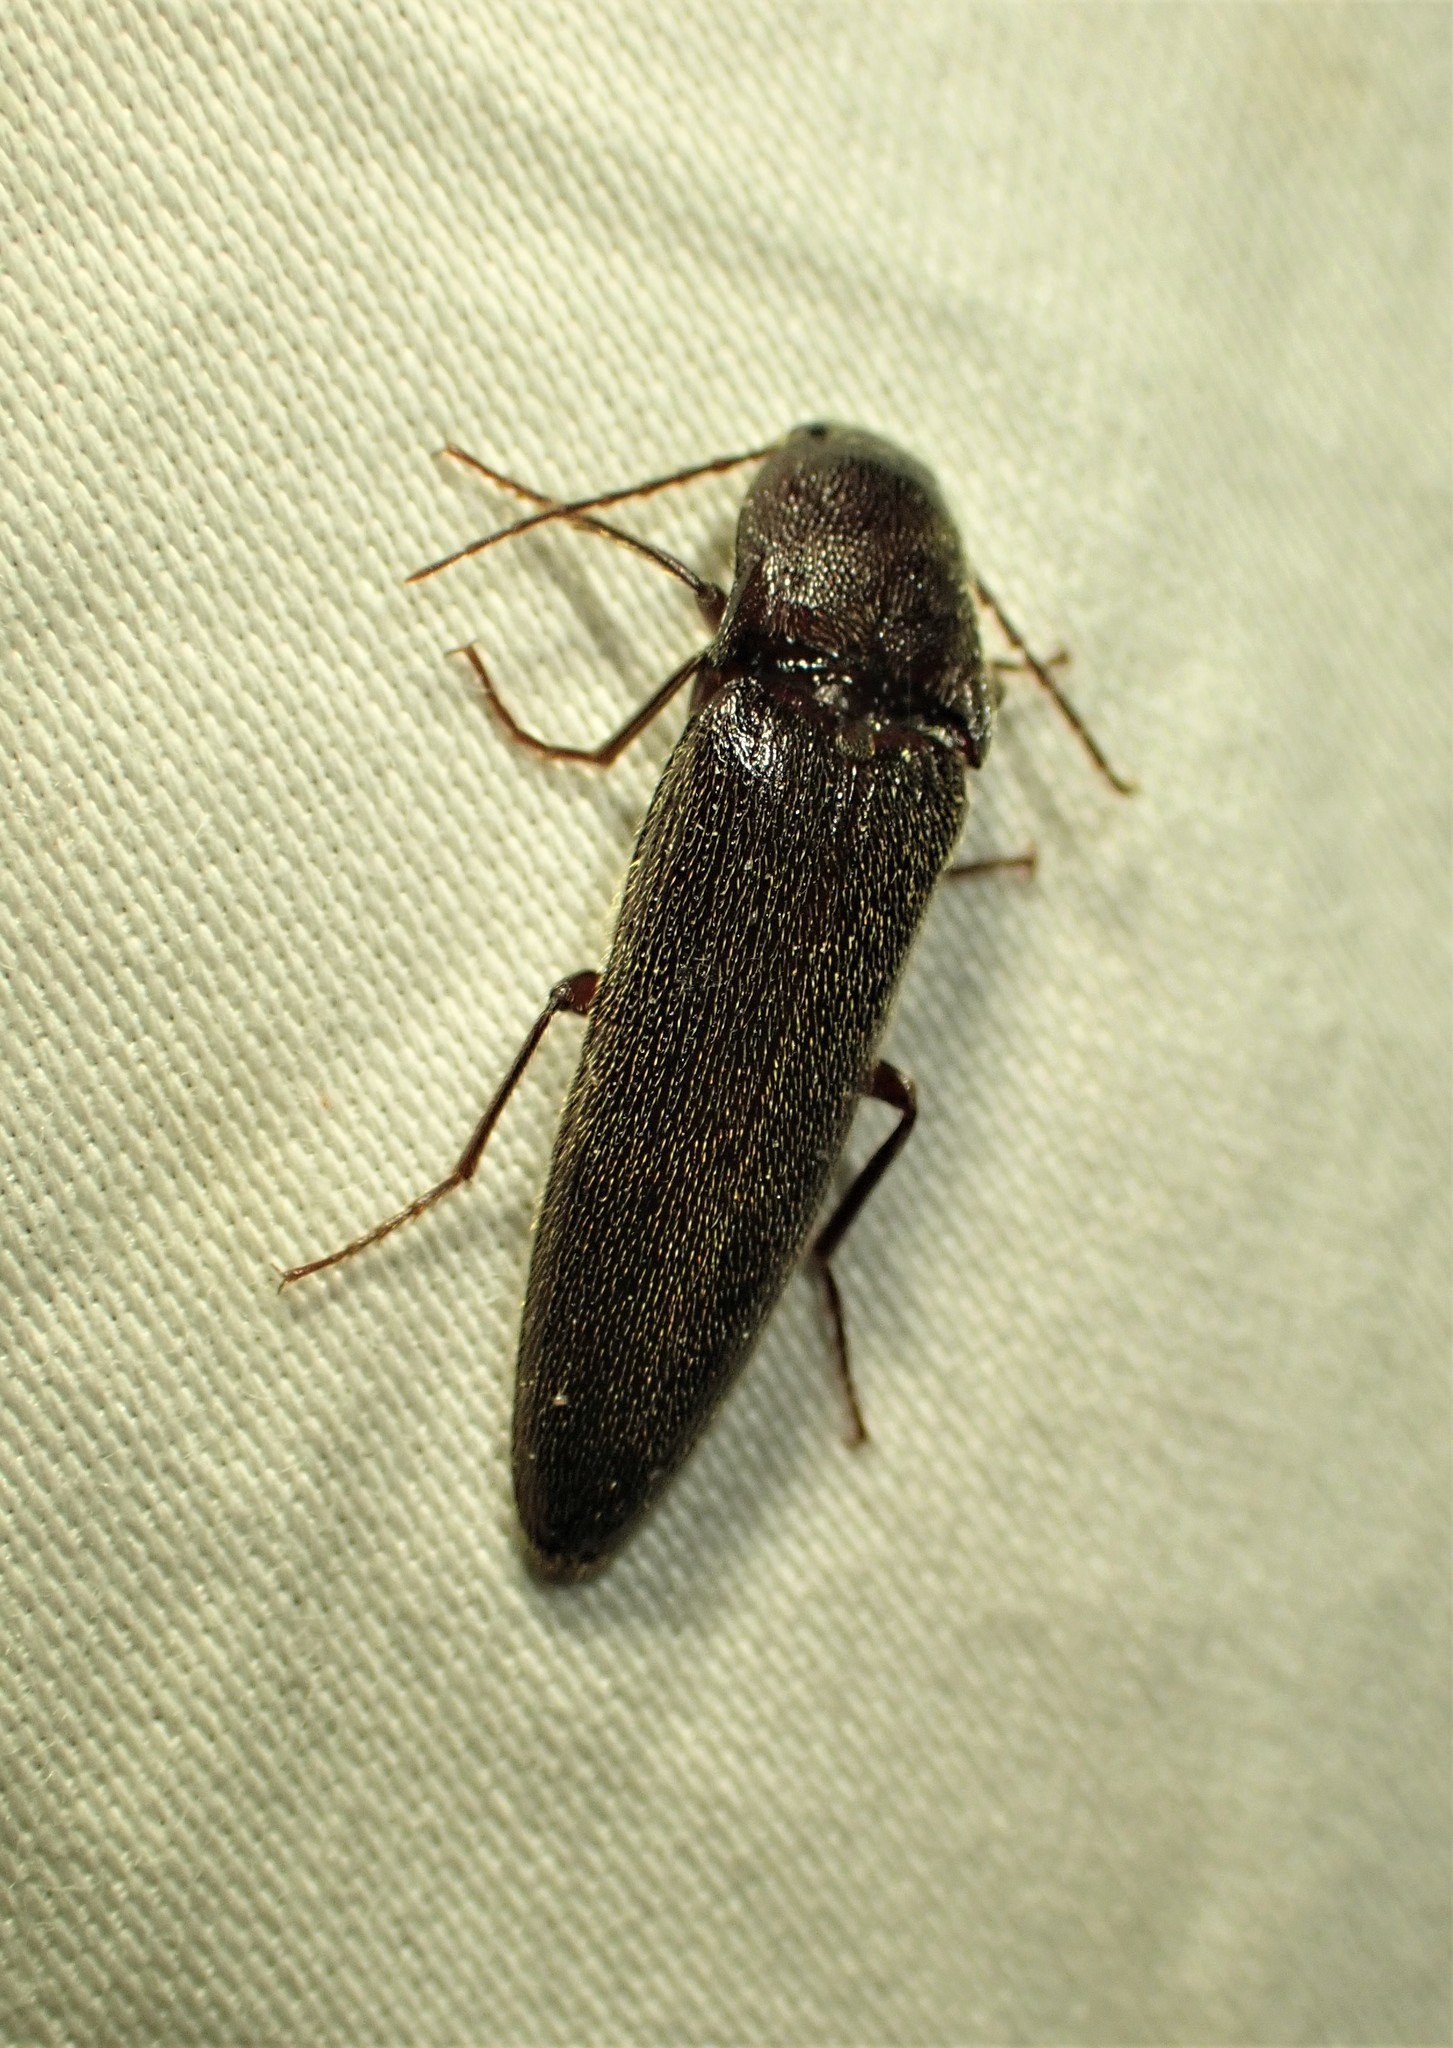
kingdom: Animalia
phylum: Arthropoda
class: Insecta
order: Coleoptera
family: Elateridae
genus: Melanotus
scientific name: Melanotus castanipes
